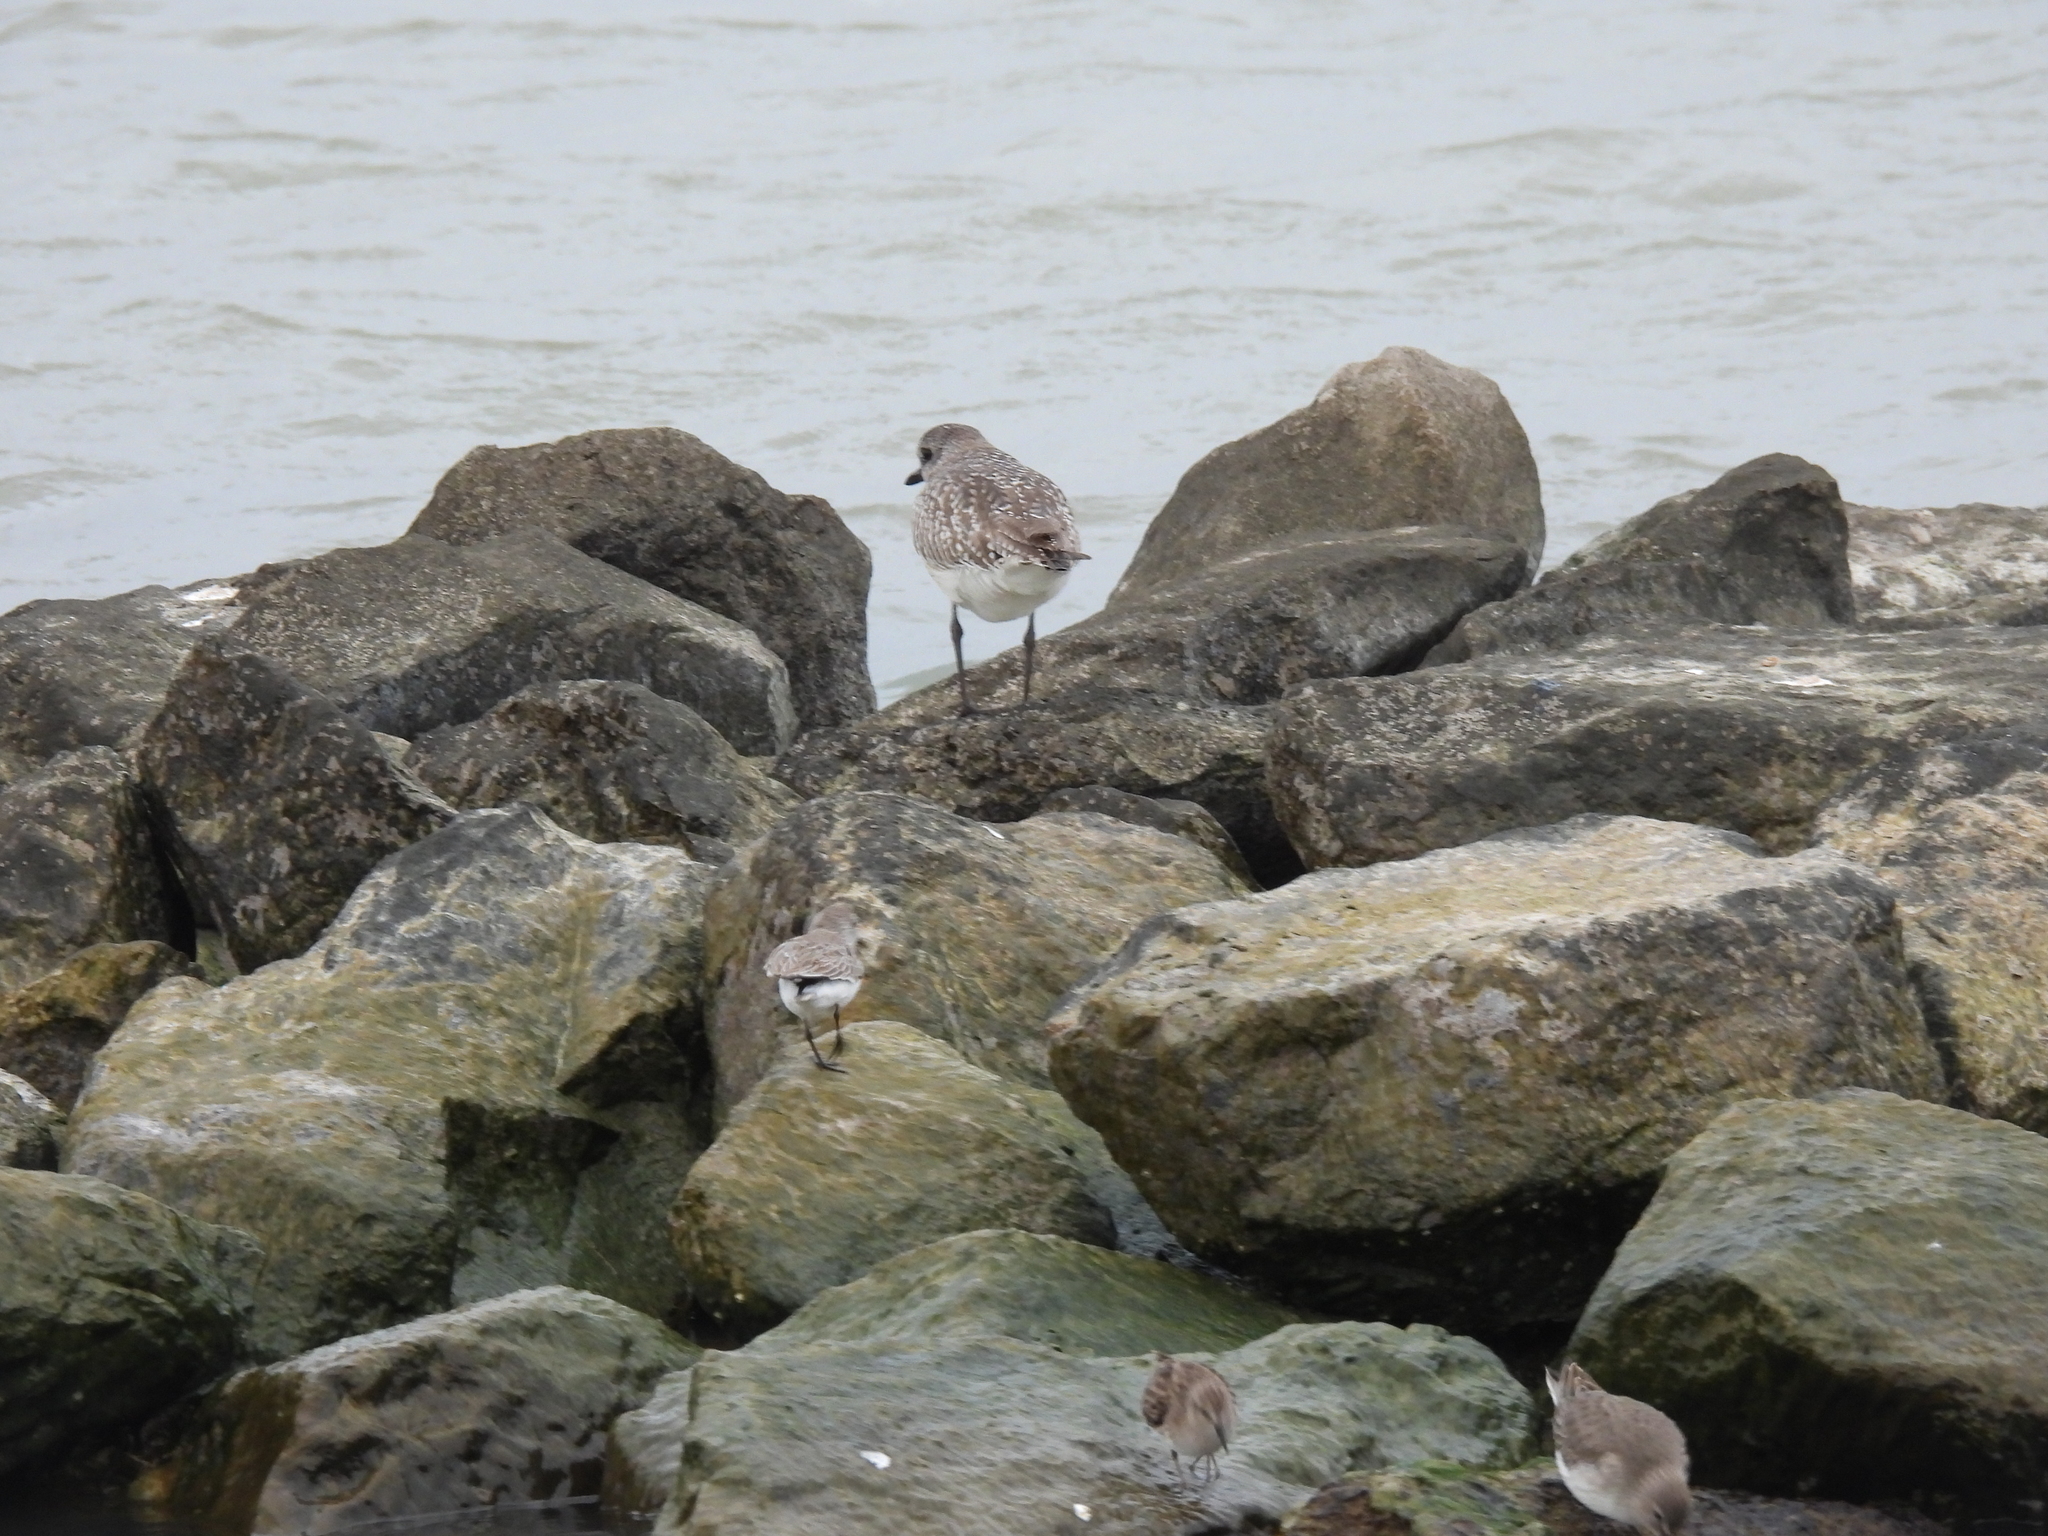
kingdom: Animalia
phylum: Chordata
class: Aves
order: Charadriiformes
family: Charadriidae
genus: Pluvialis
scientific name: Pluvialis squatarola
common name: Grey plover
